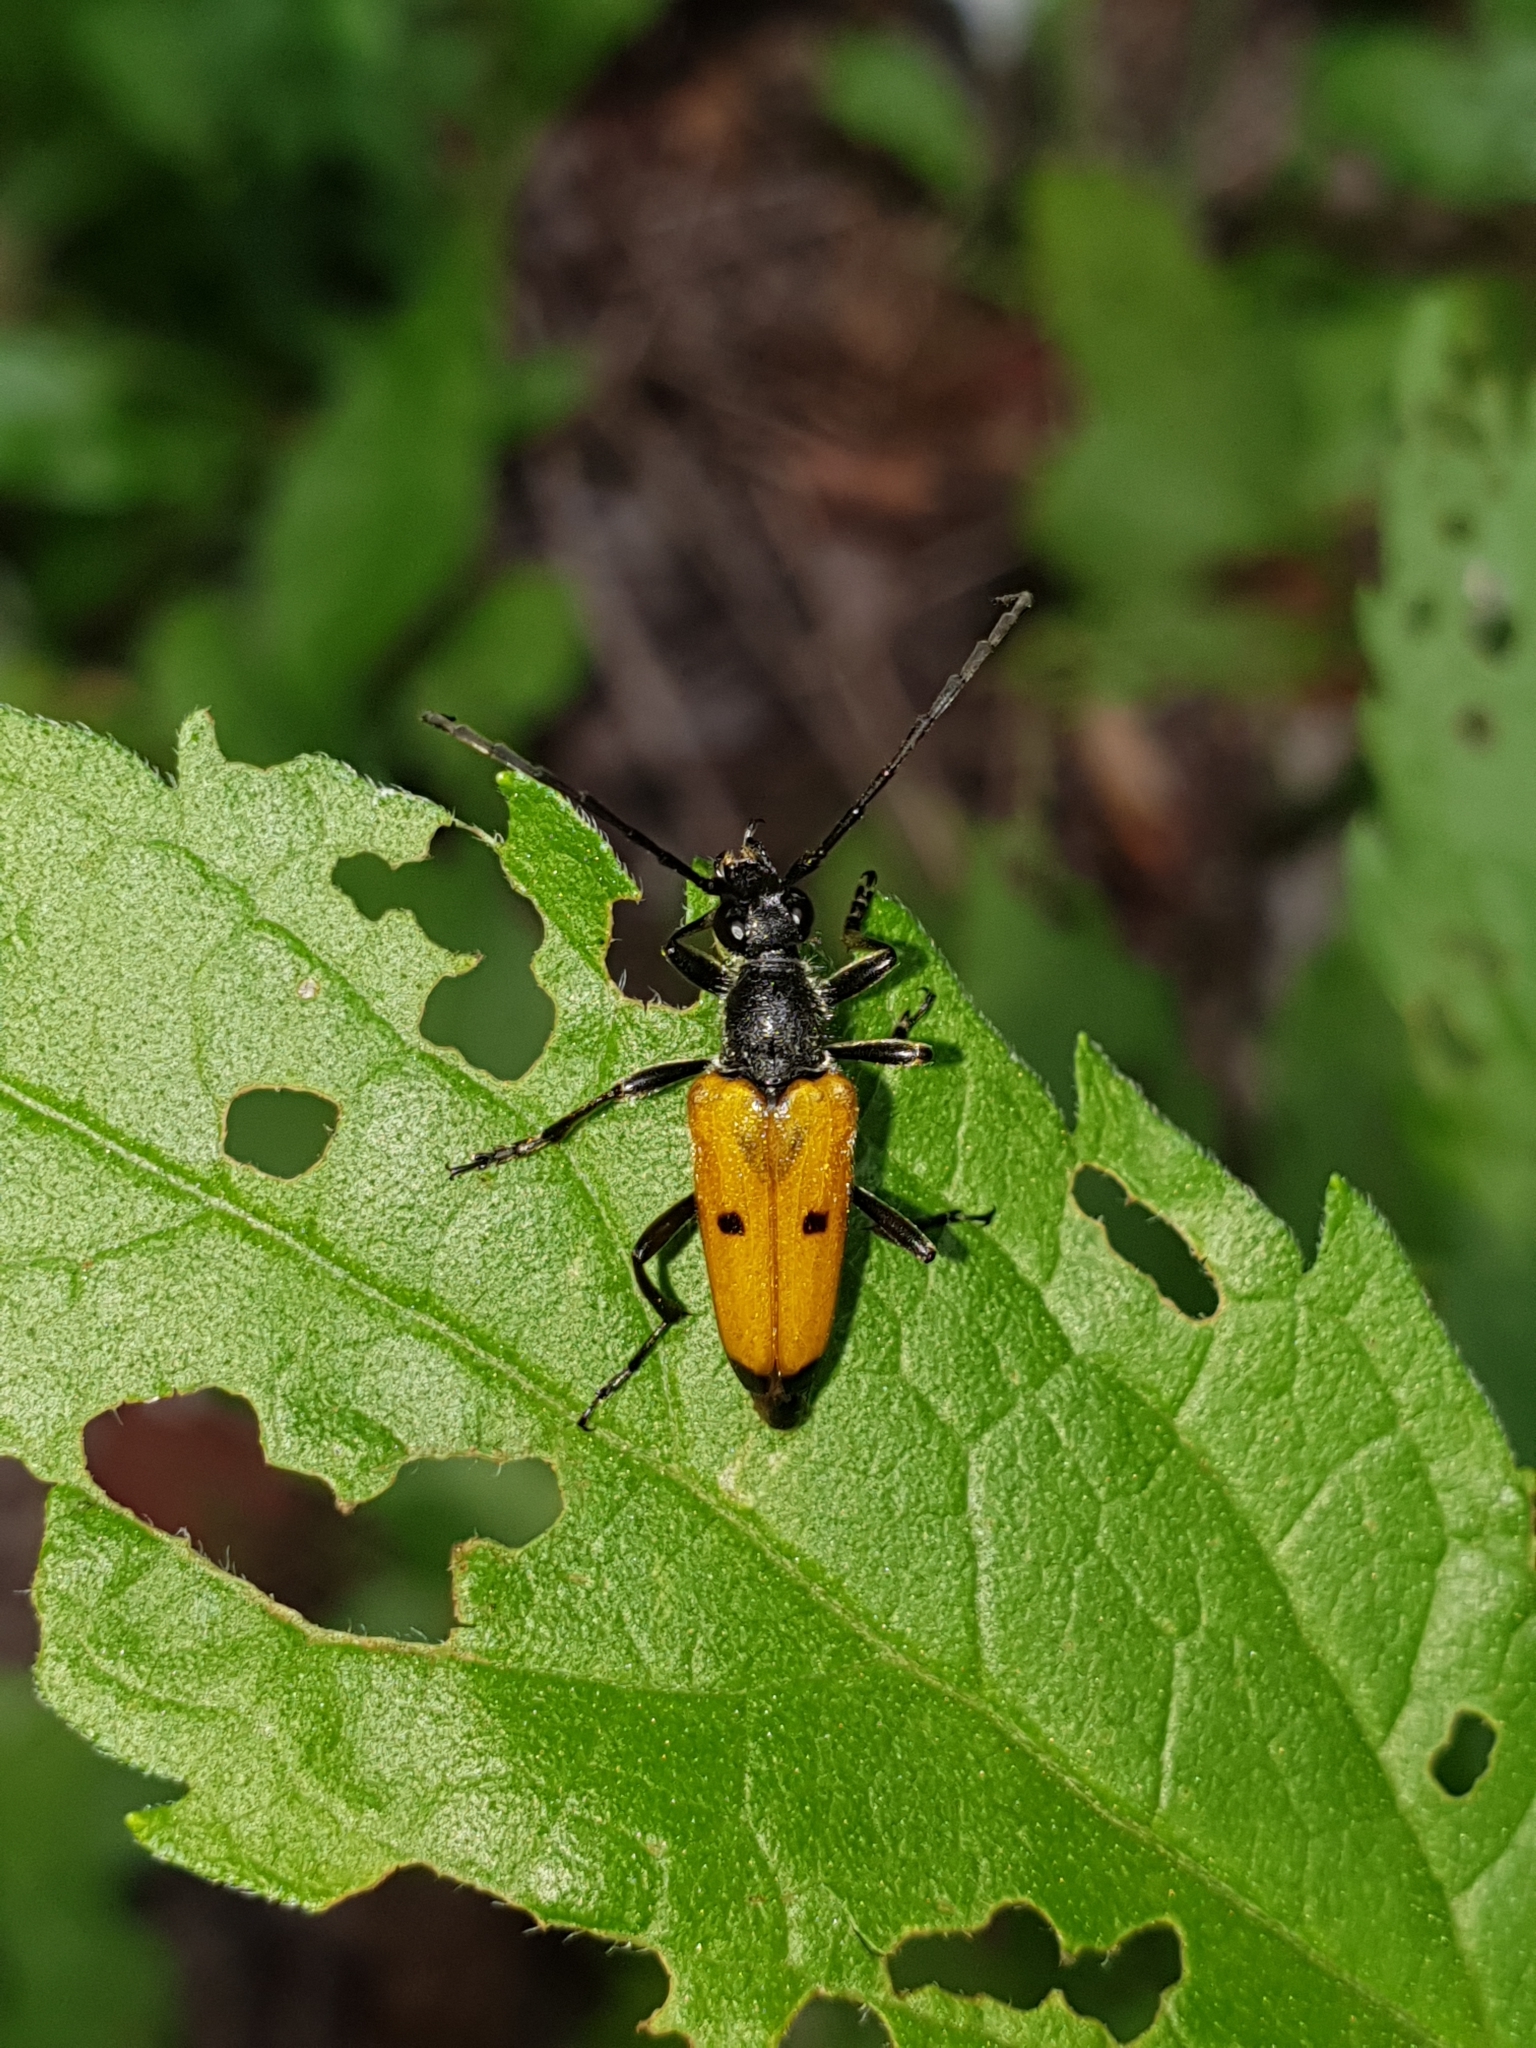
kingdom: Animalia
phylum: Arthropoda
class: Insecta
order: Coleoptera
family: Cerambycidae
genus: Paracorymbia
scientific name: Paracorymbia tesserula
